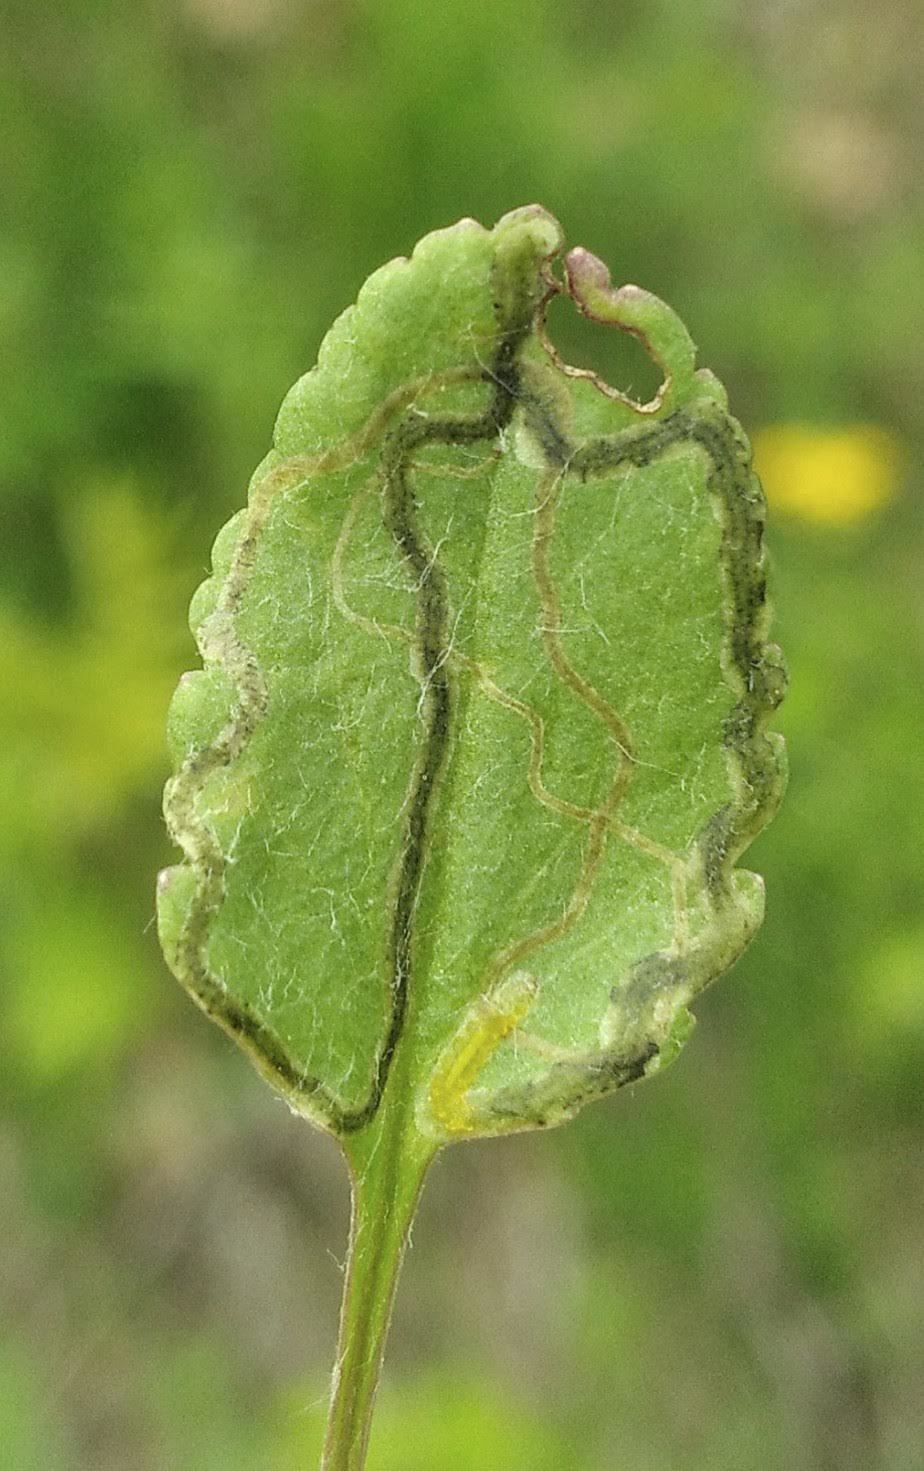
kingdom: Animalia
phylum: Arthropoda
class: Insecta
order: Lepidoptera
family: Gracillariidae
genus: Phyllocnistis
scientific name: Phyllocnistis insignis
